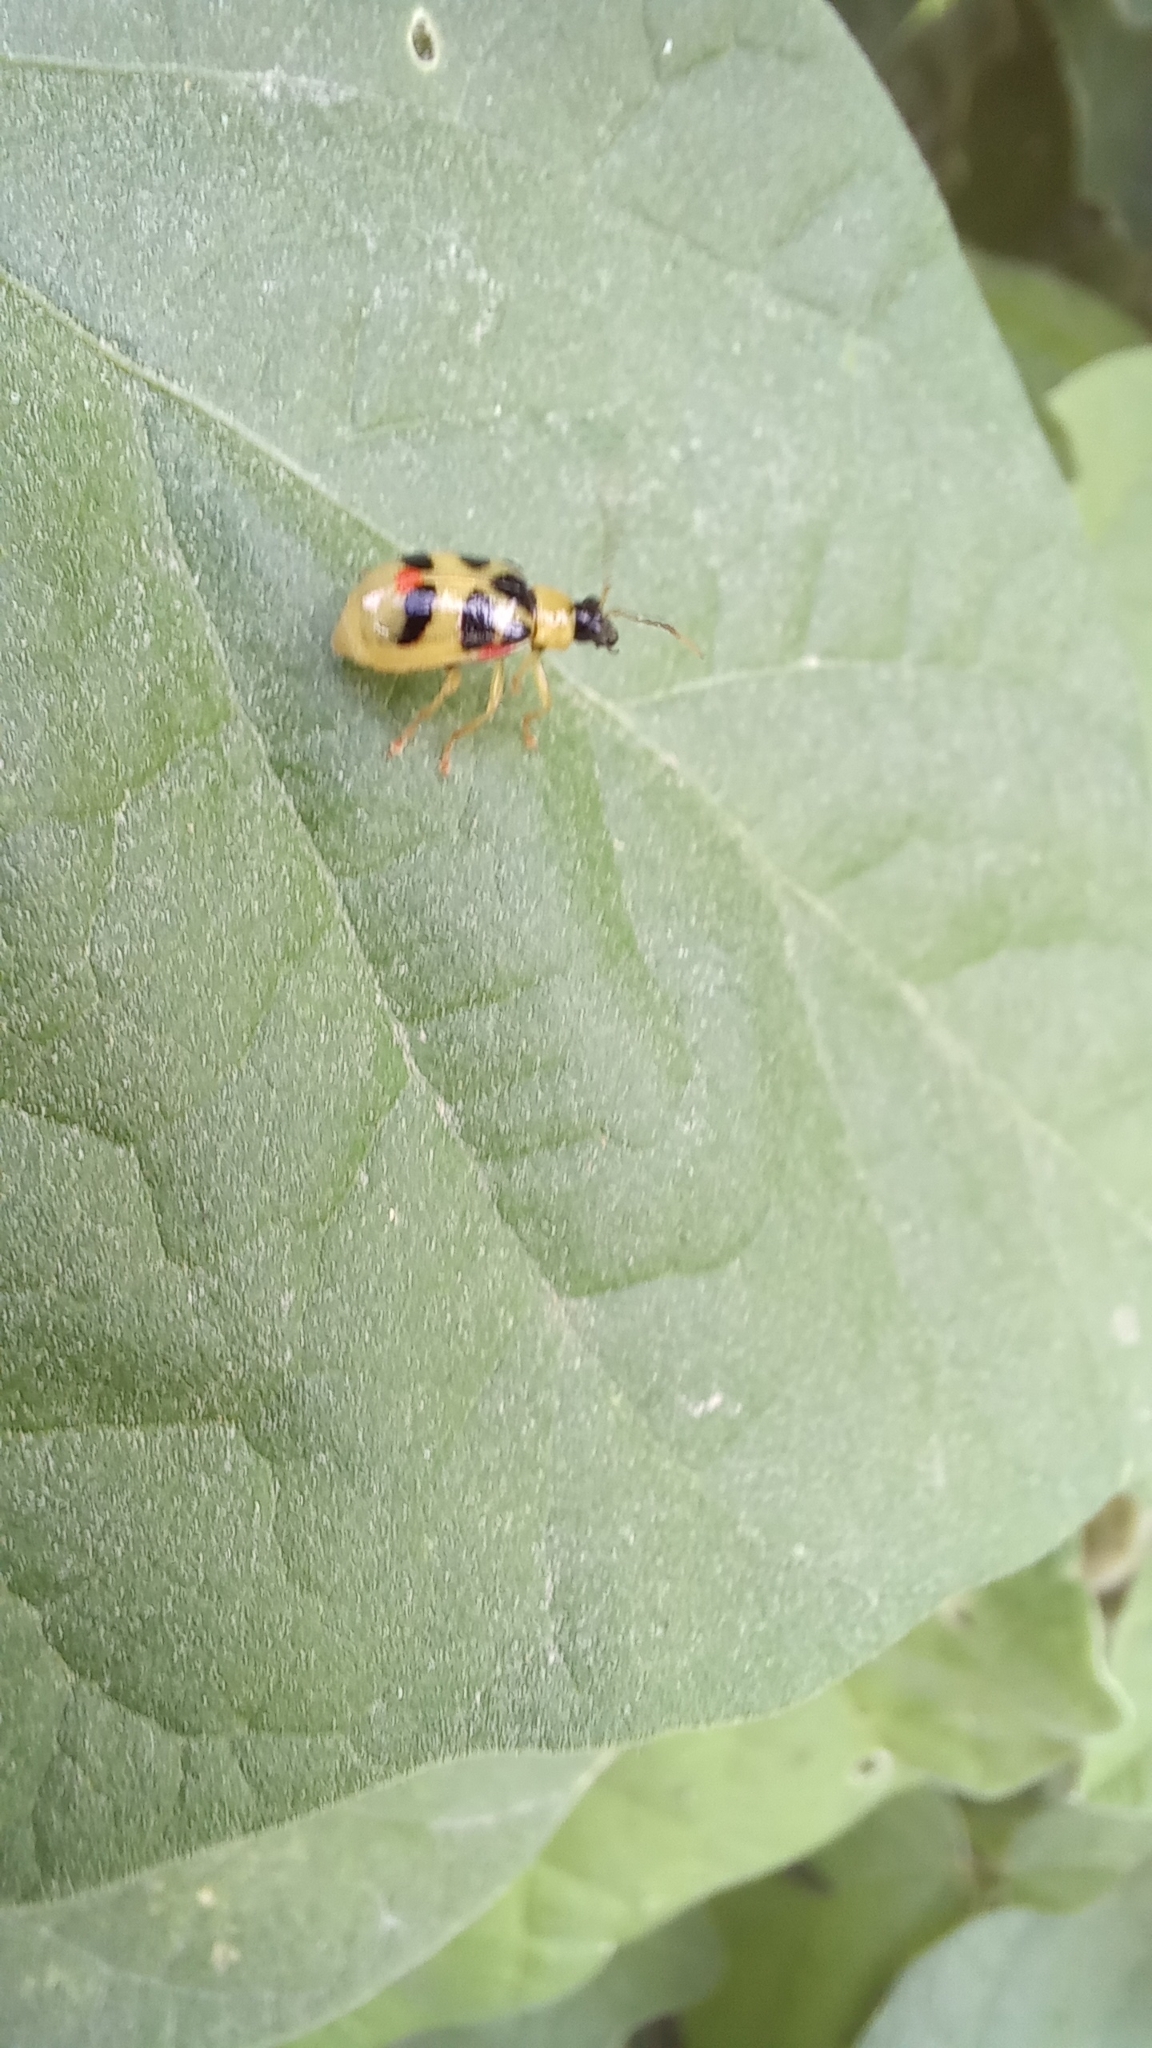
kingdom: Animalia
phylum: Arthropoda
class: Insecta
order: Coleoptera
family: Chrysomelidae
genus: Cerotoma
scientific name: Cerotoma ruficornis
